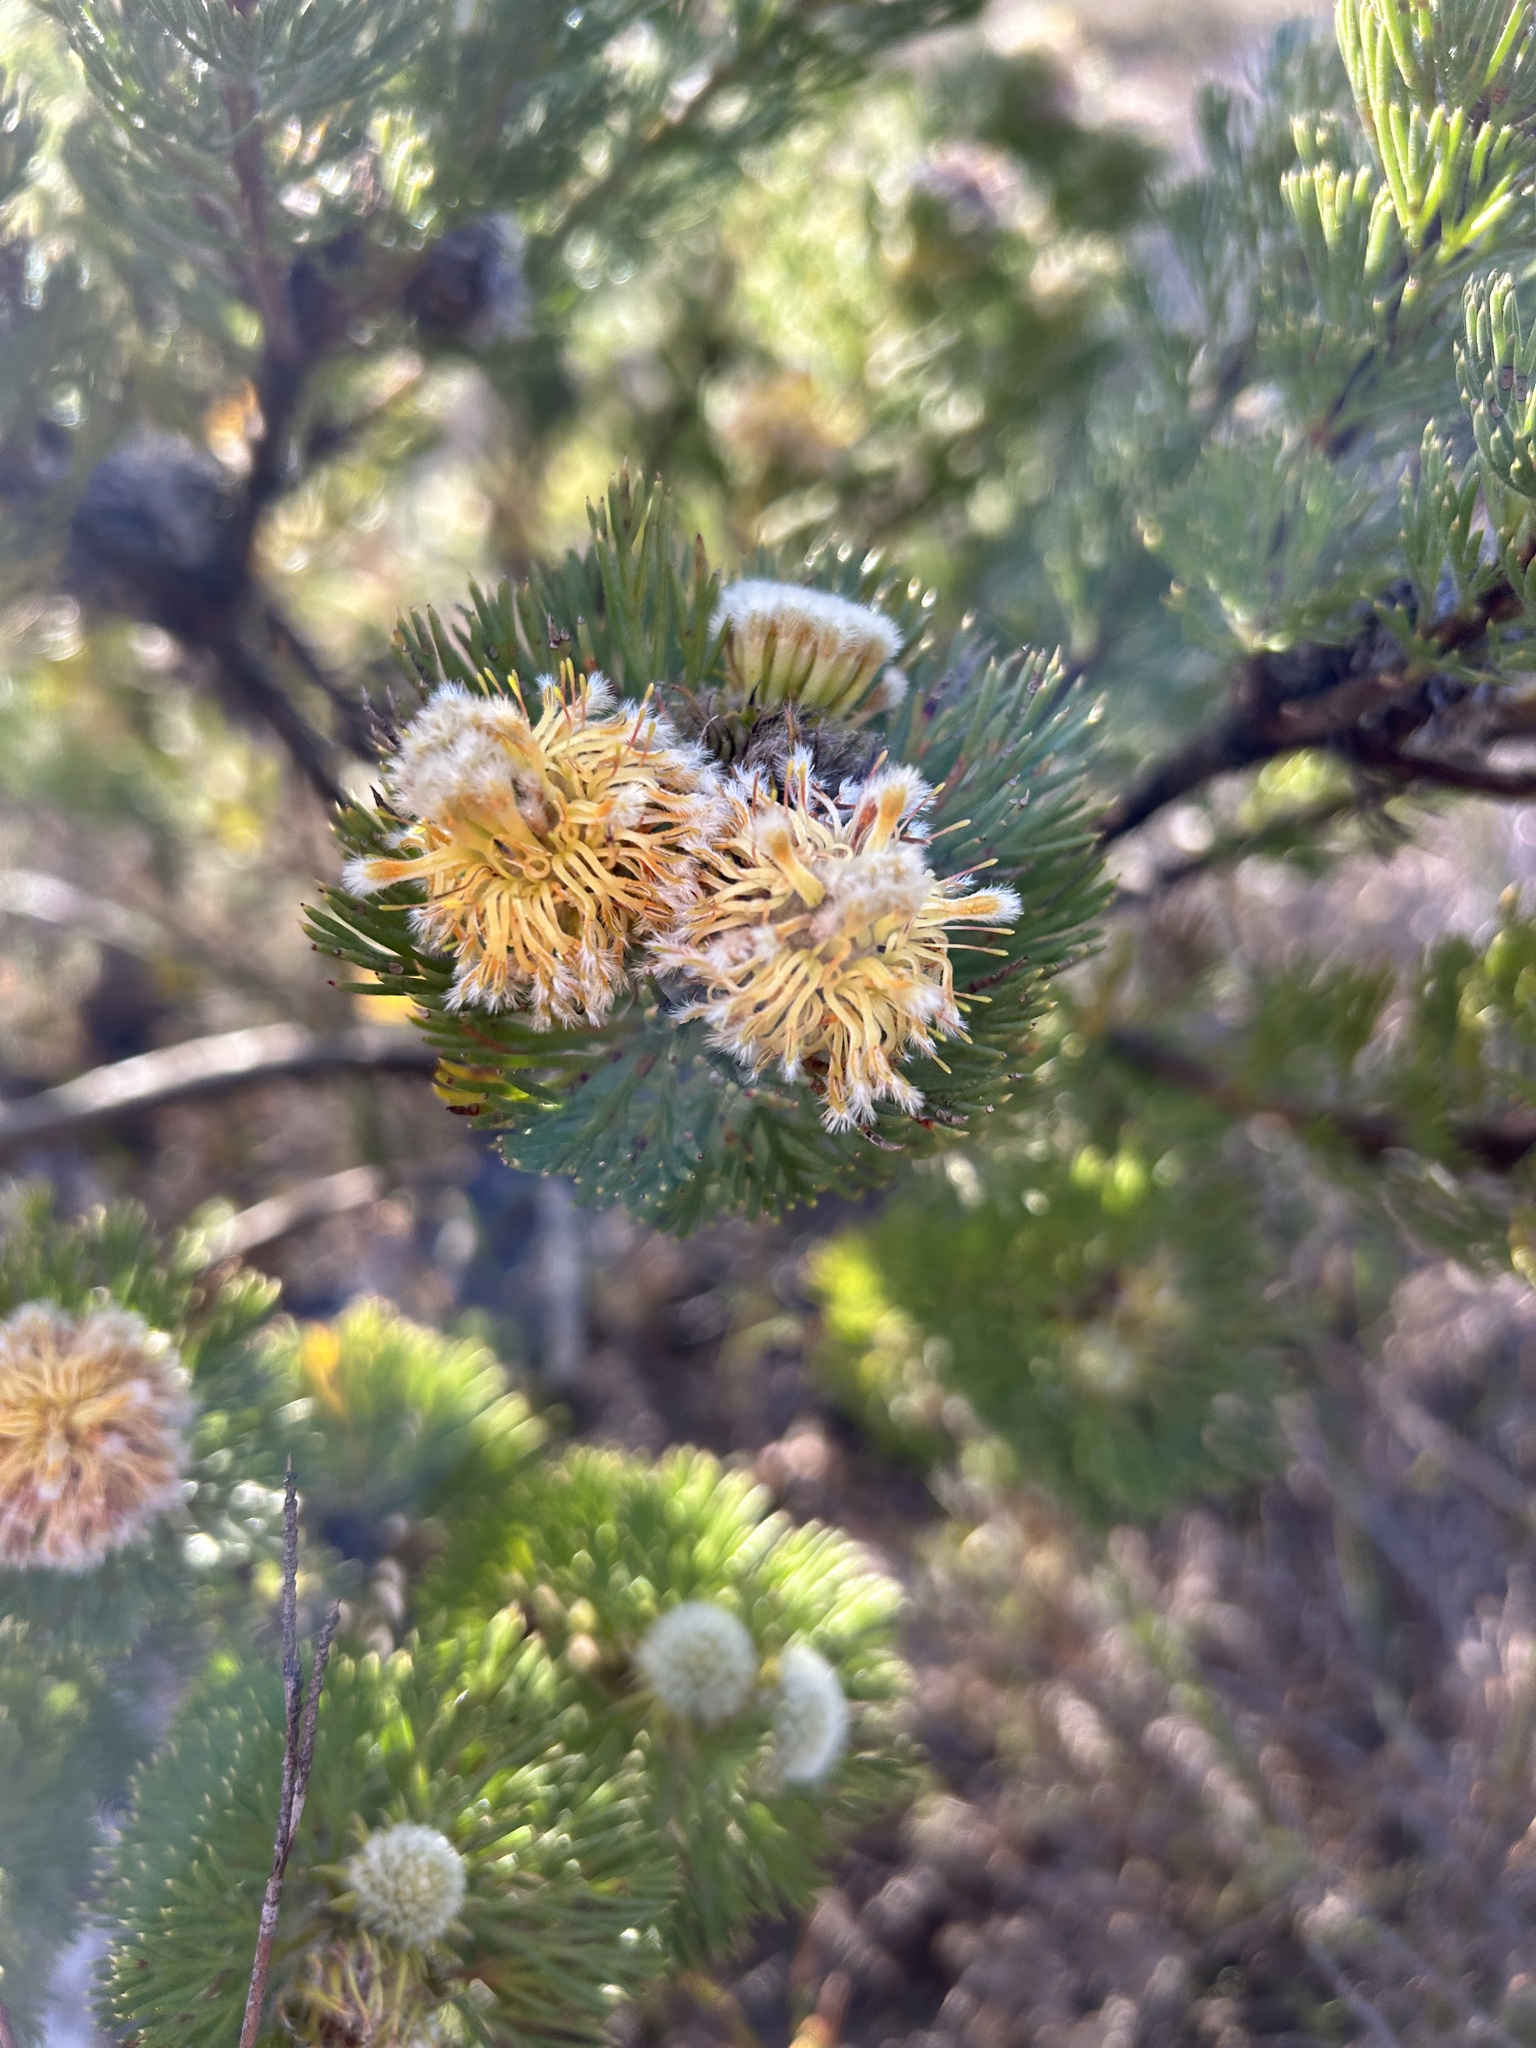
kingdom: Plantae
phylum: Tracheophyta
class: Magnoliopsida
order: Proteales
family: Proteaceae
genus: Serruria
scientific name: Serruria villosa
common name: Golden spiderhead
